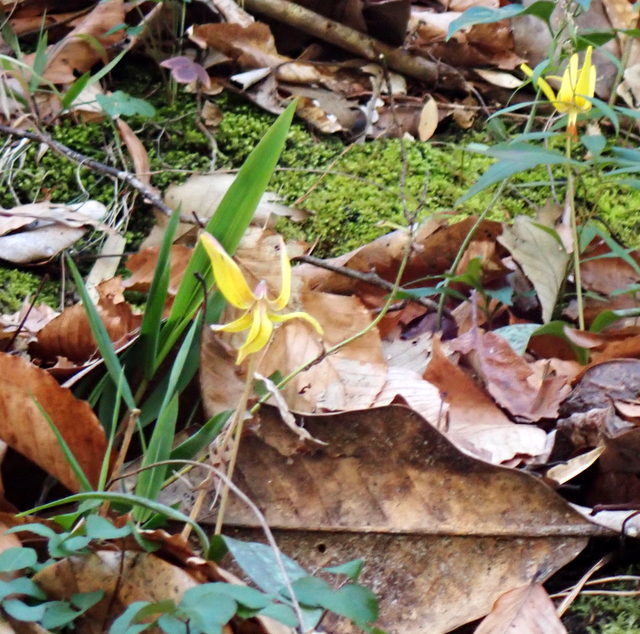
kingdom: Plantae
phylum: Tracheophyta
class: Liliopsida
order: Liliales
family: Liliaceae
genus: Erythronium
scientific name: Erythronium umbilicatum
